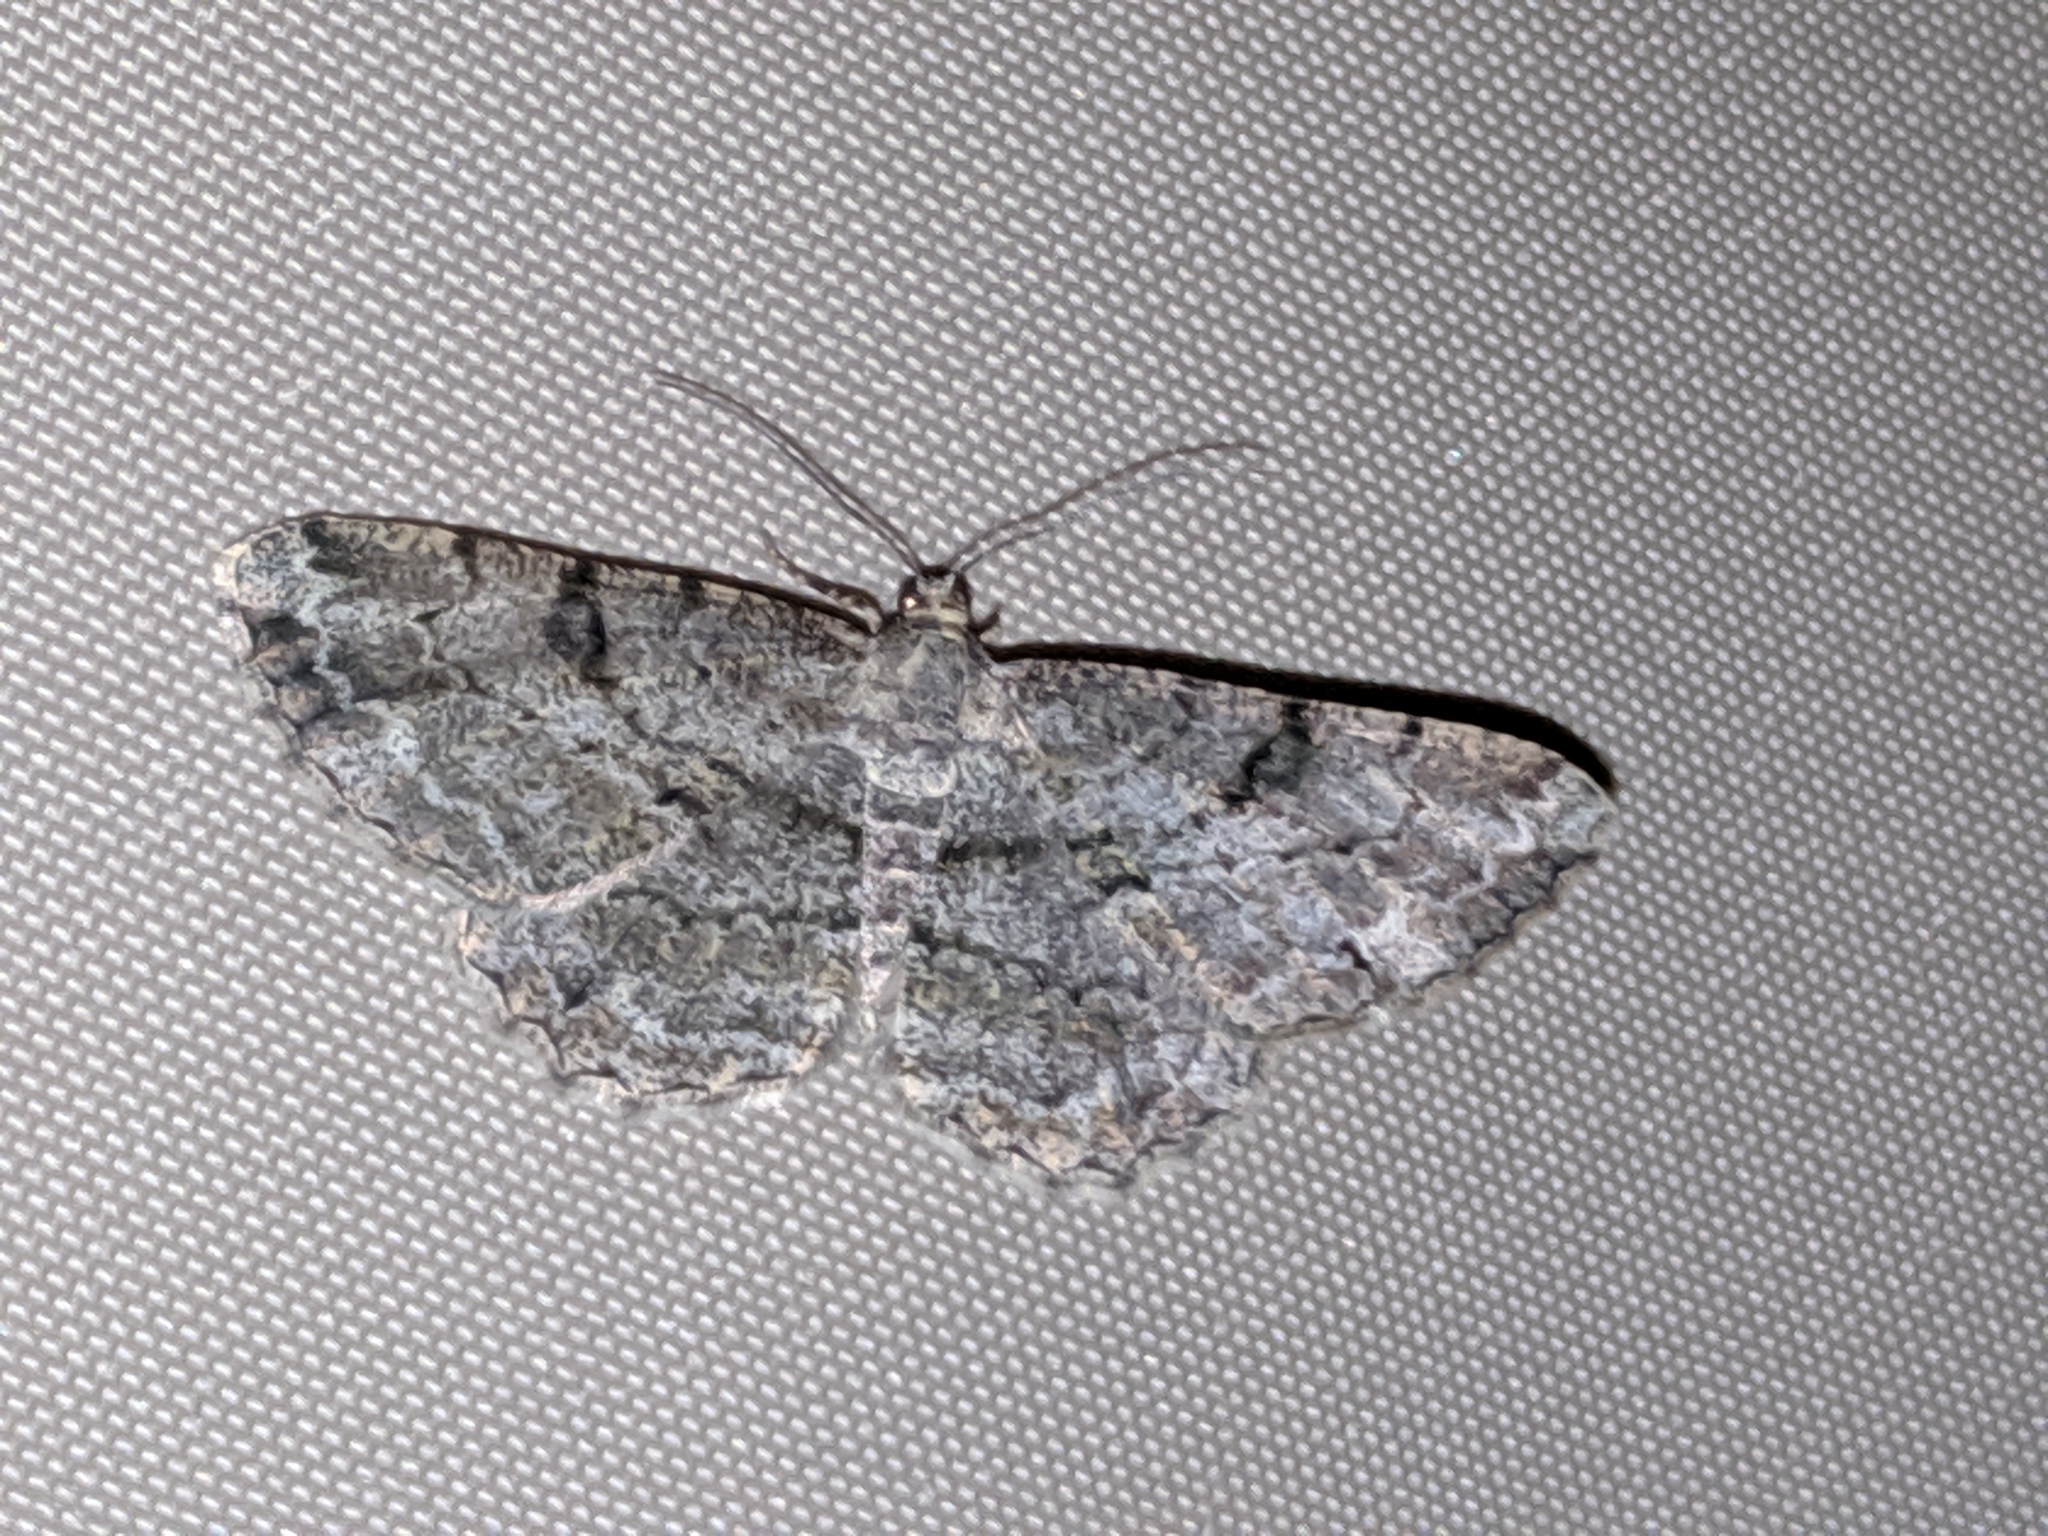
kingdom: Animalia
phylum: Arthropoda
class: Insecta
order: Lepidoptera
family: Geometridae
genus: Peribatodes
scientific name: Peribatodes rhomboidaria
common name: Willow beauty
